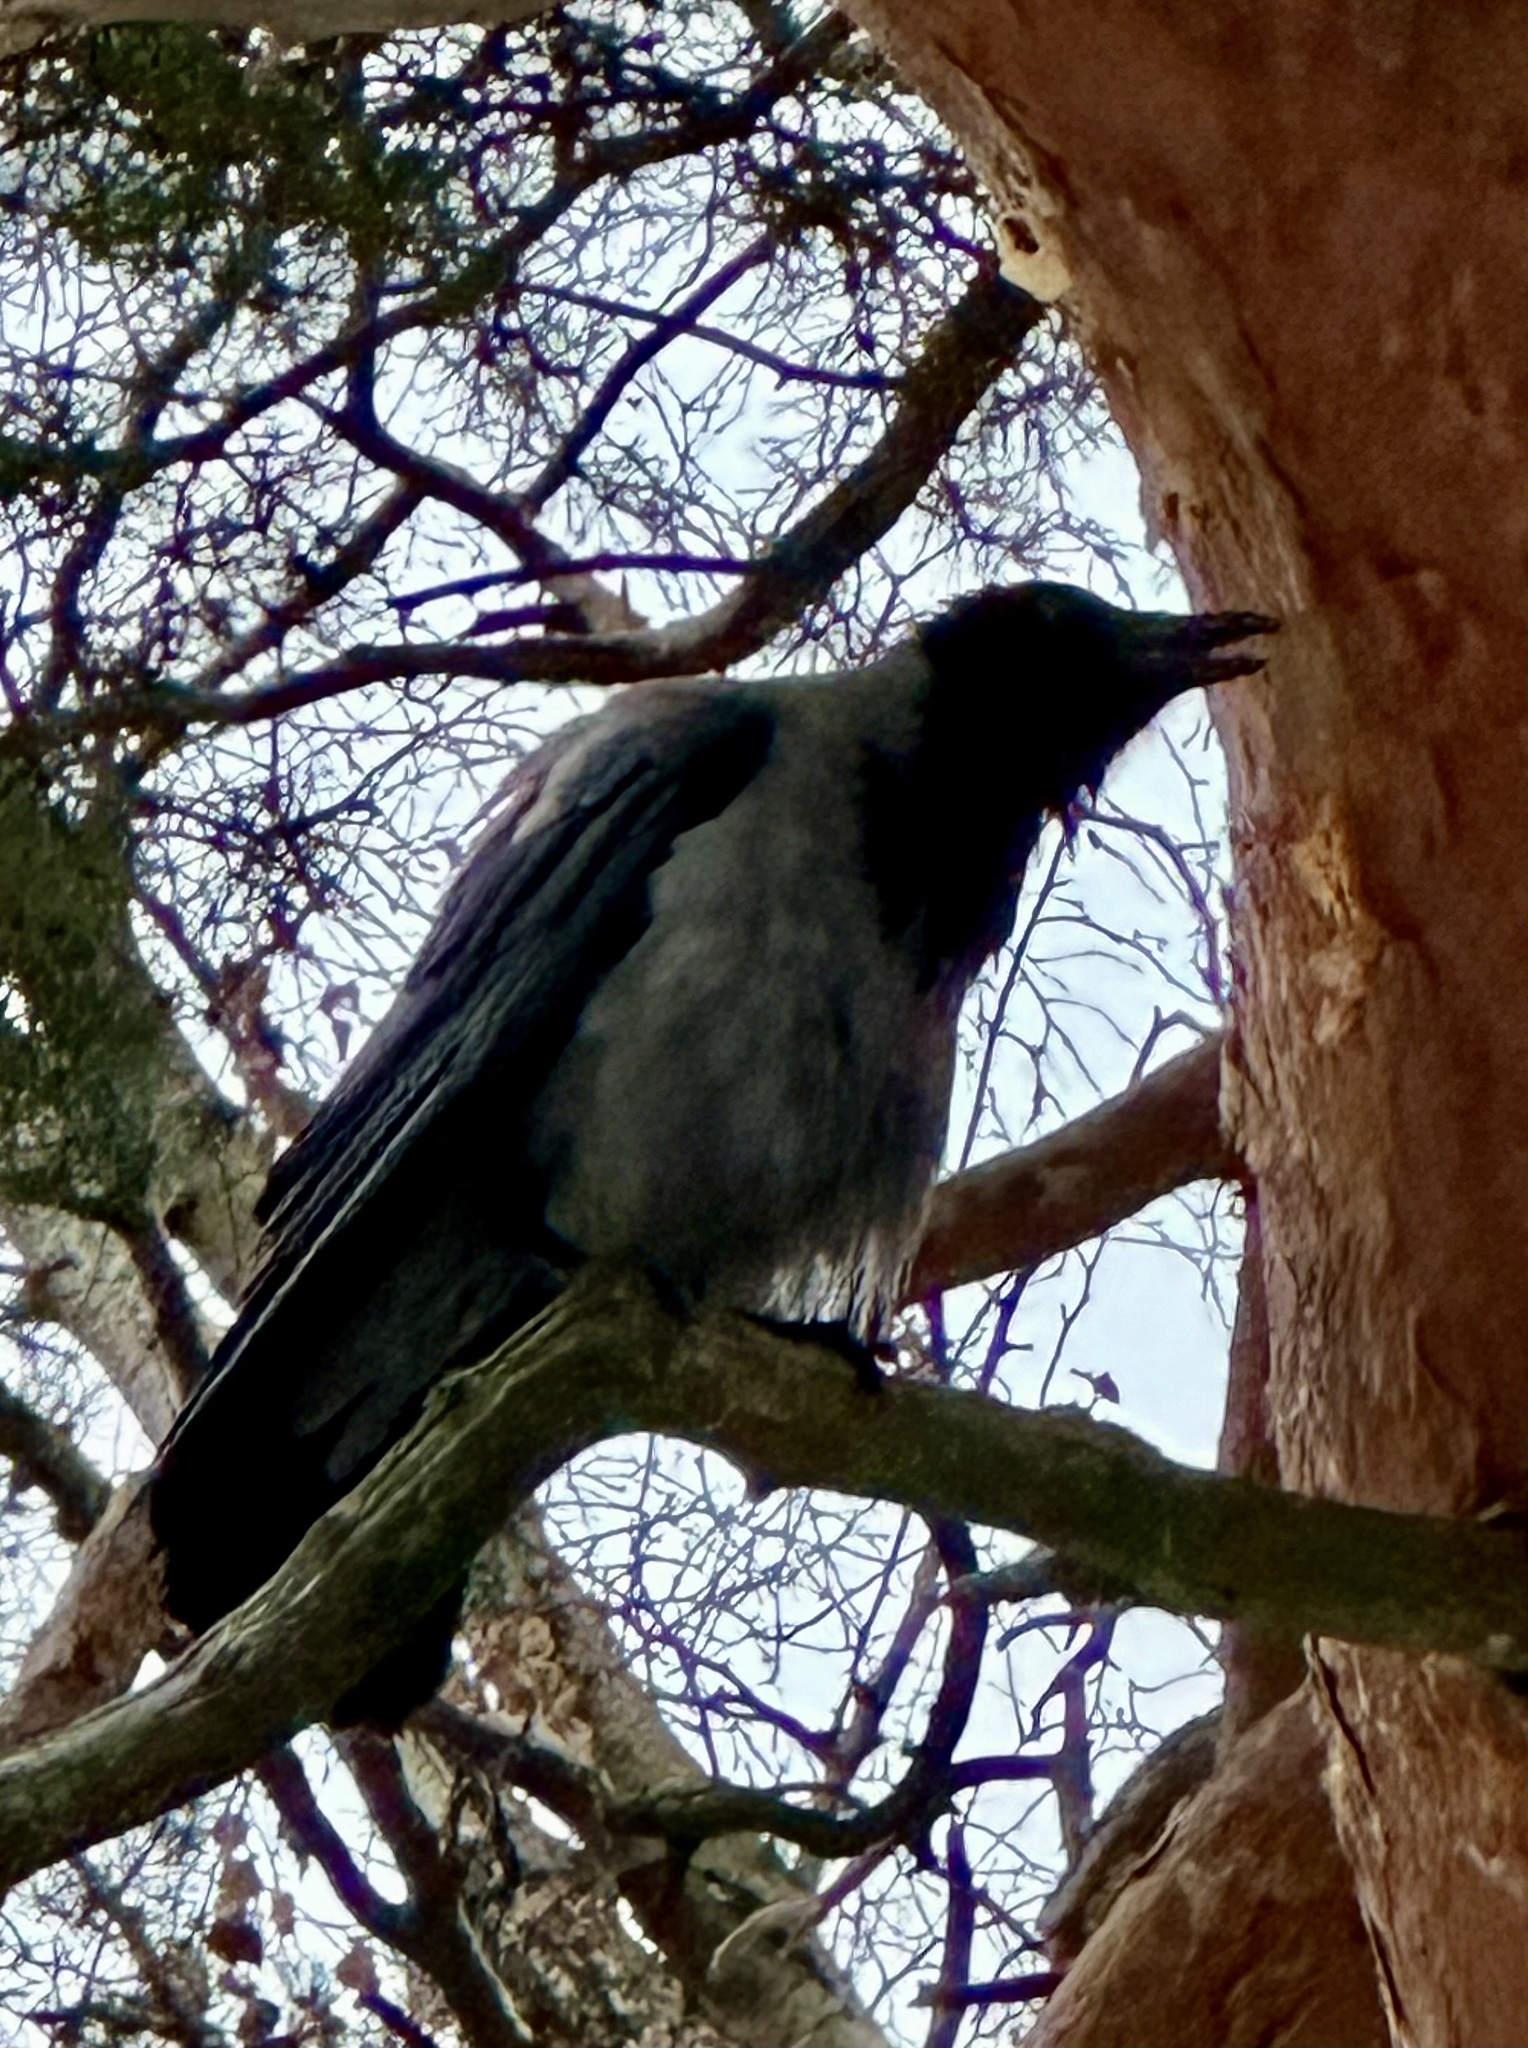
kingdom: Animalia
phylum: Chordata
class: Aves
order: Passeriformes
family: Corvidae
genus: Corvus
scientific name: Corvus cornix
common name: Hooded crow
